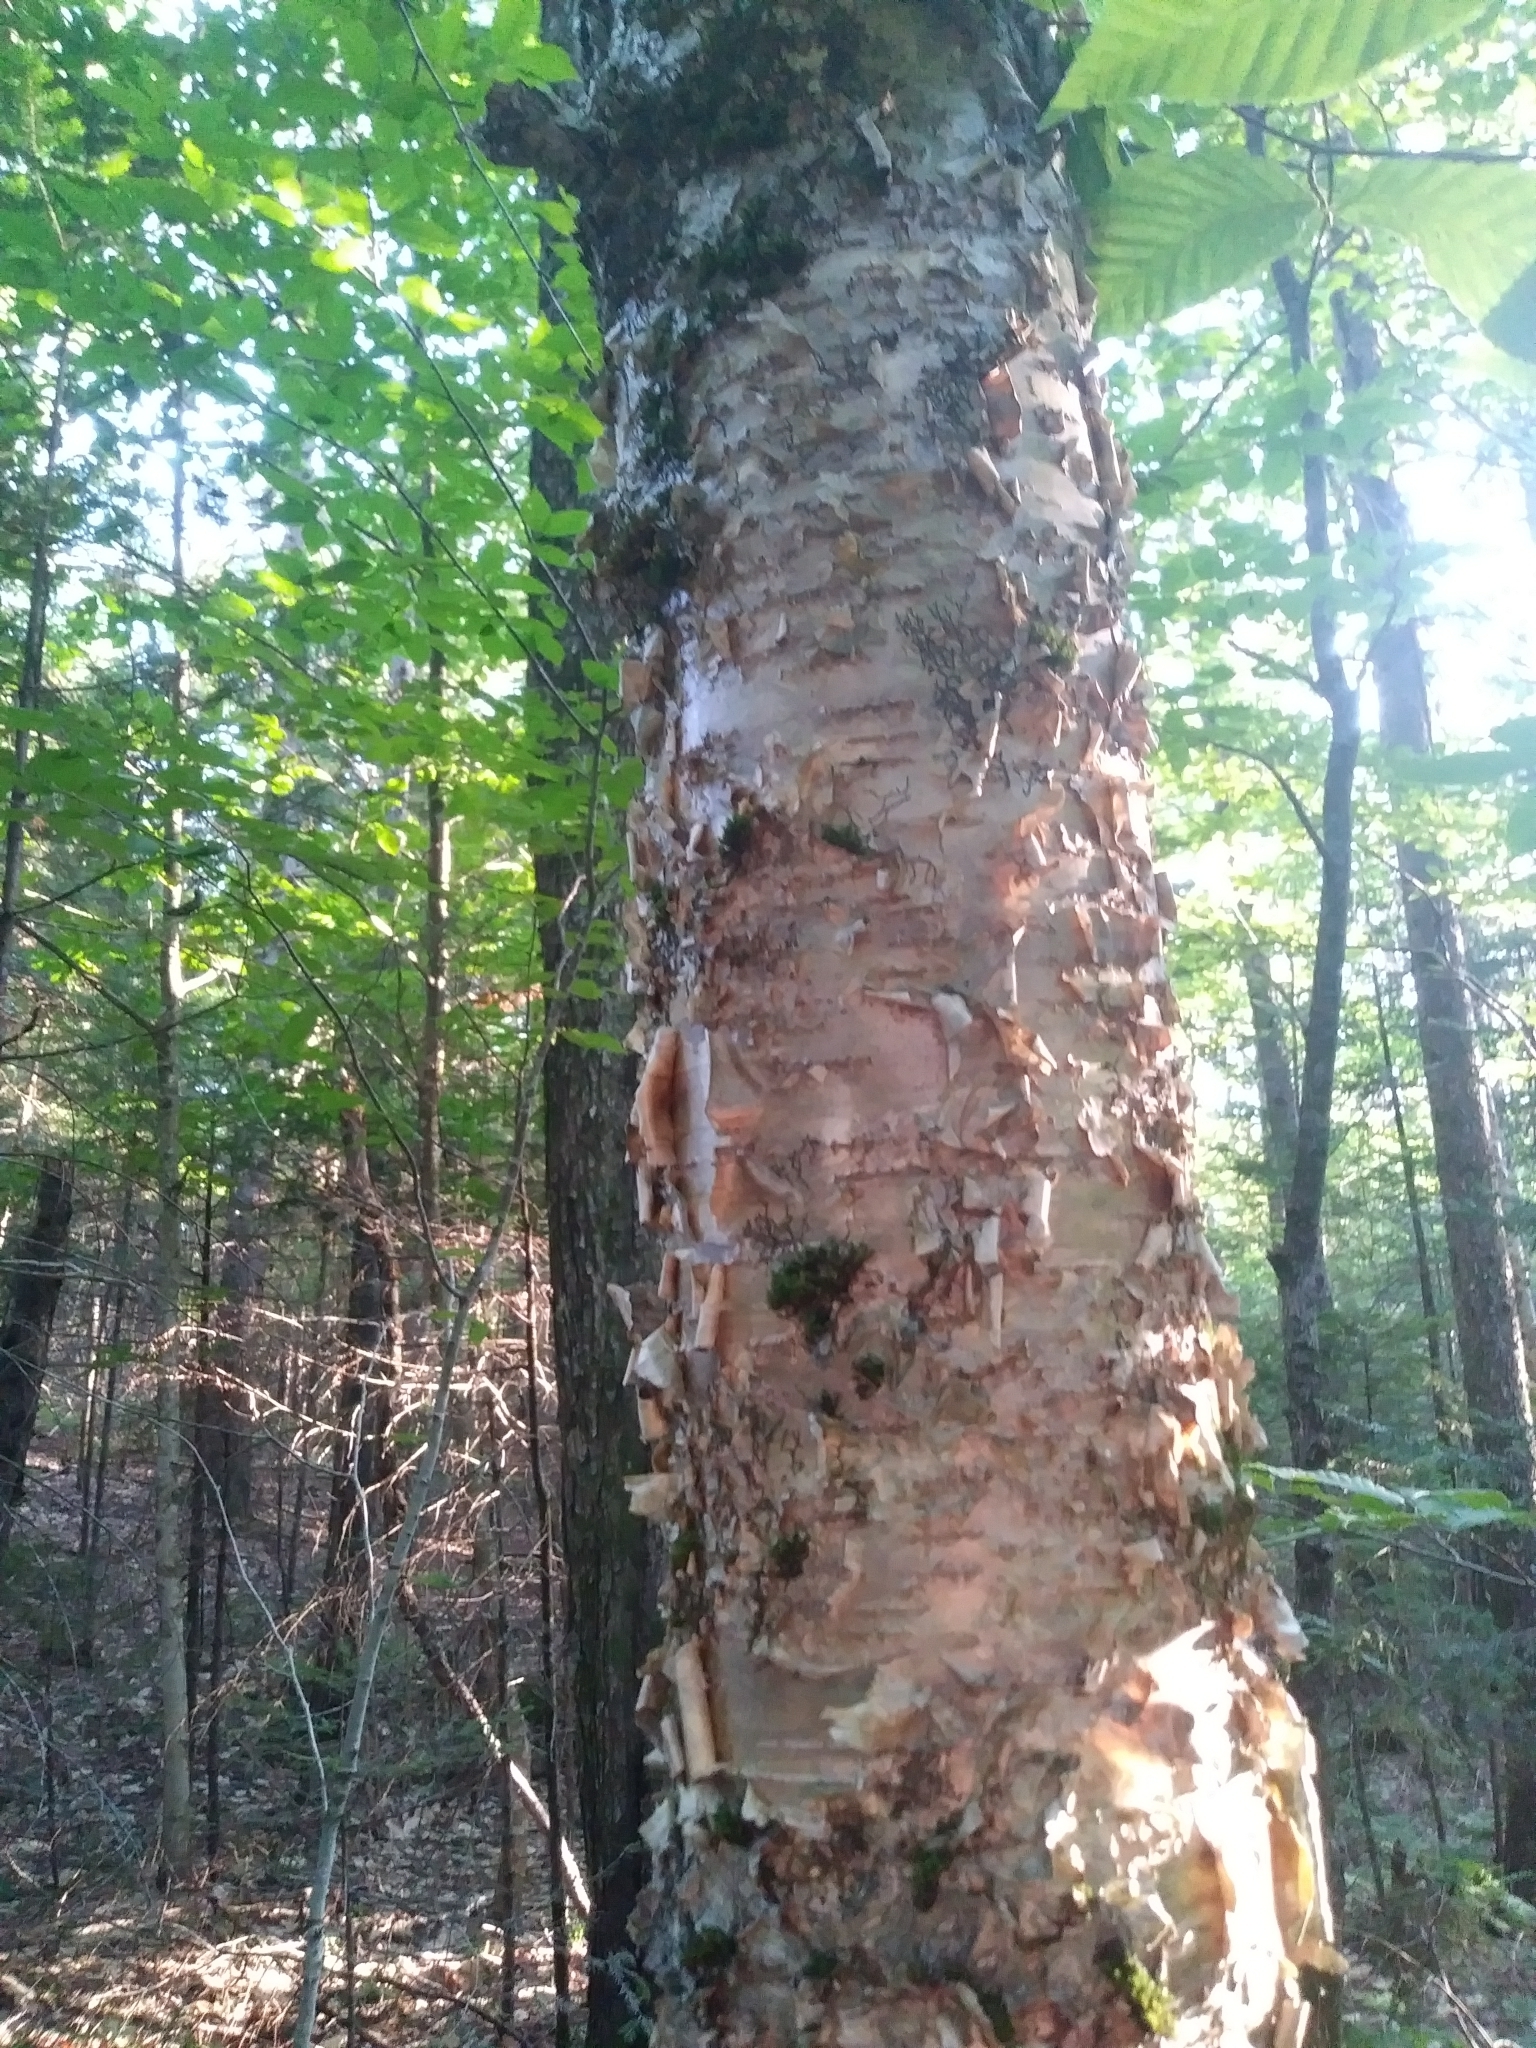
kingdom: Plantae
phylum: Tracheophyta
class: Magnoliopsida
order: Fagales
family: Betulaceae
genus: Betula
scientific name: Betula alleghaniensis
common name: Yellow birch
